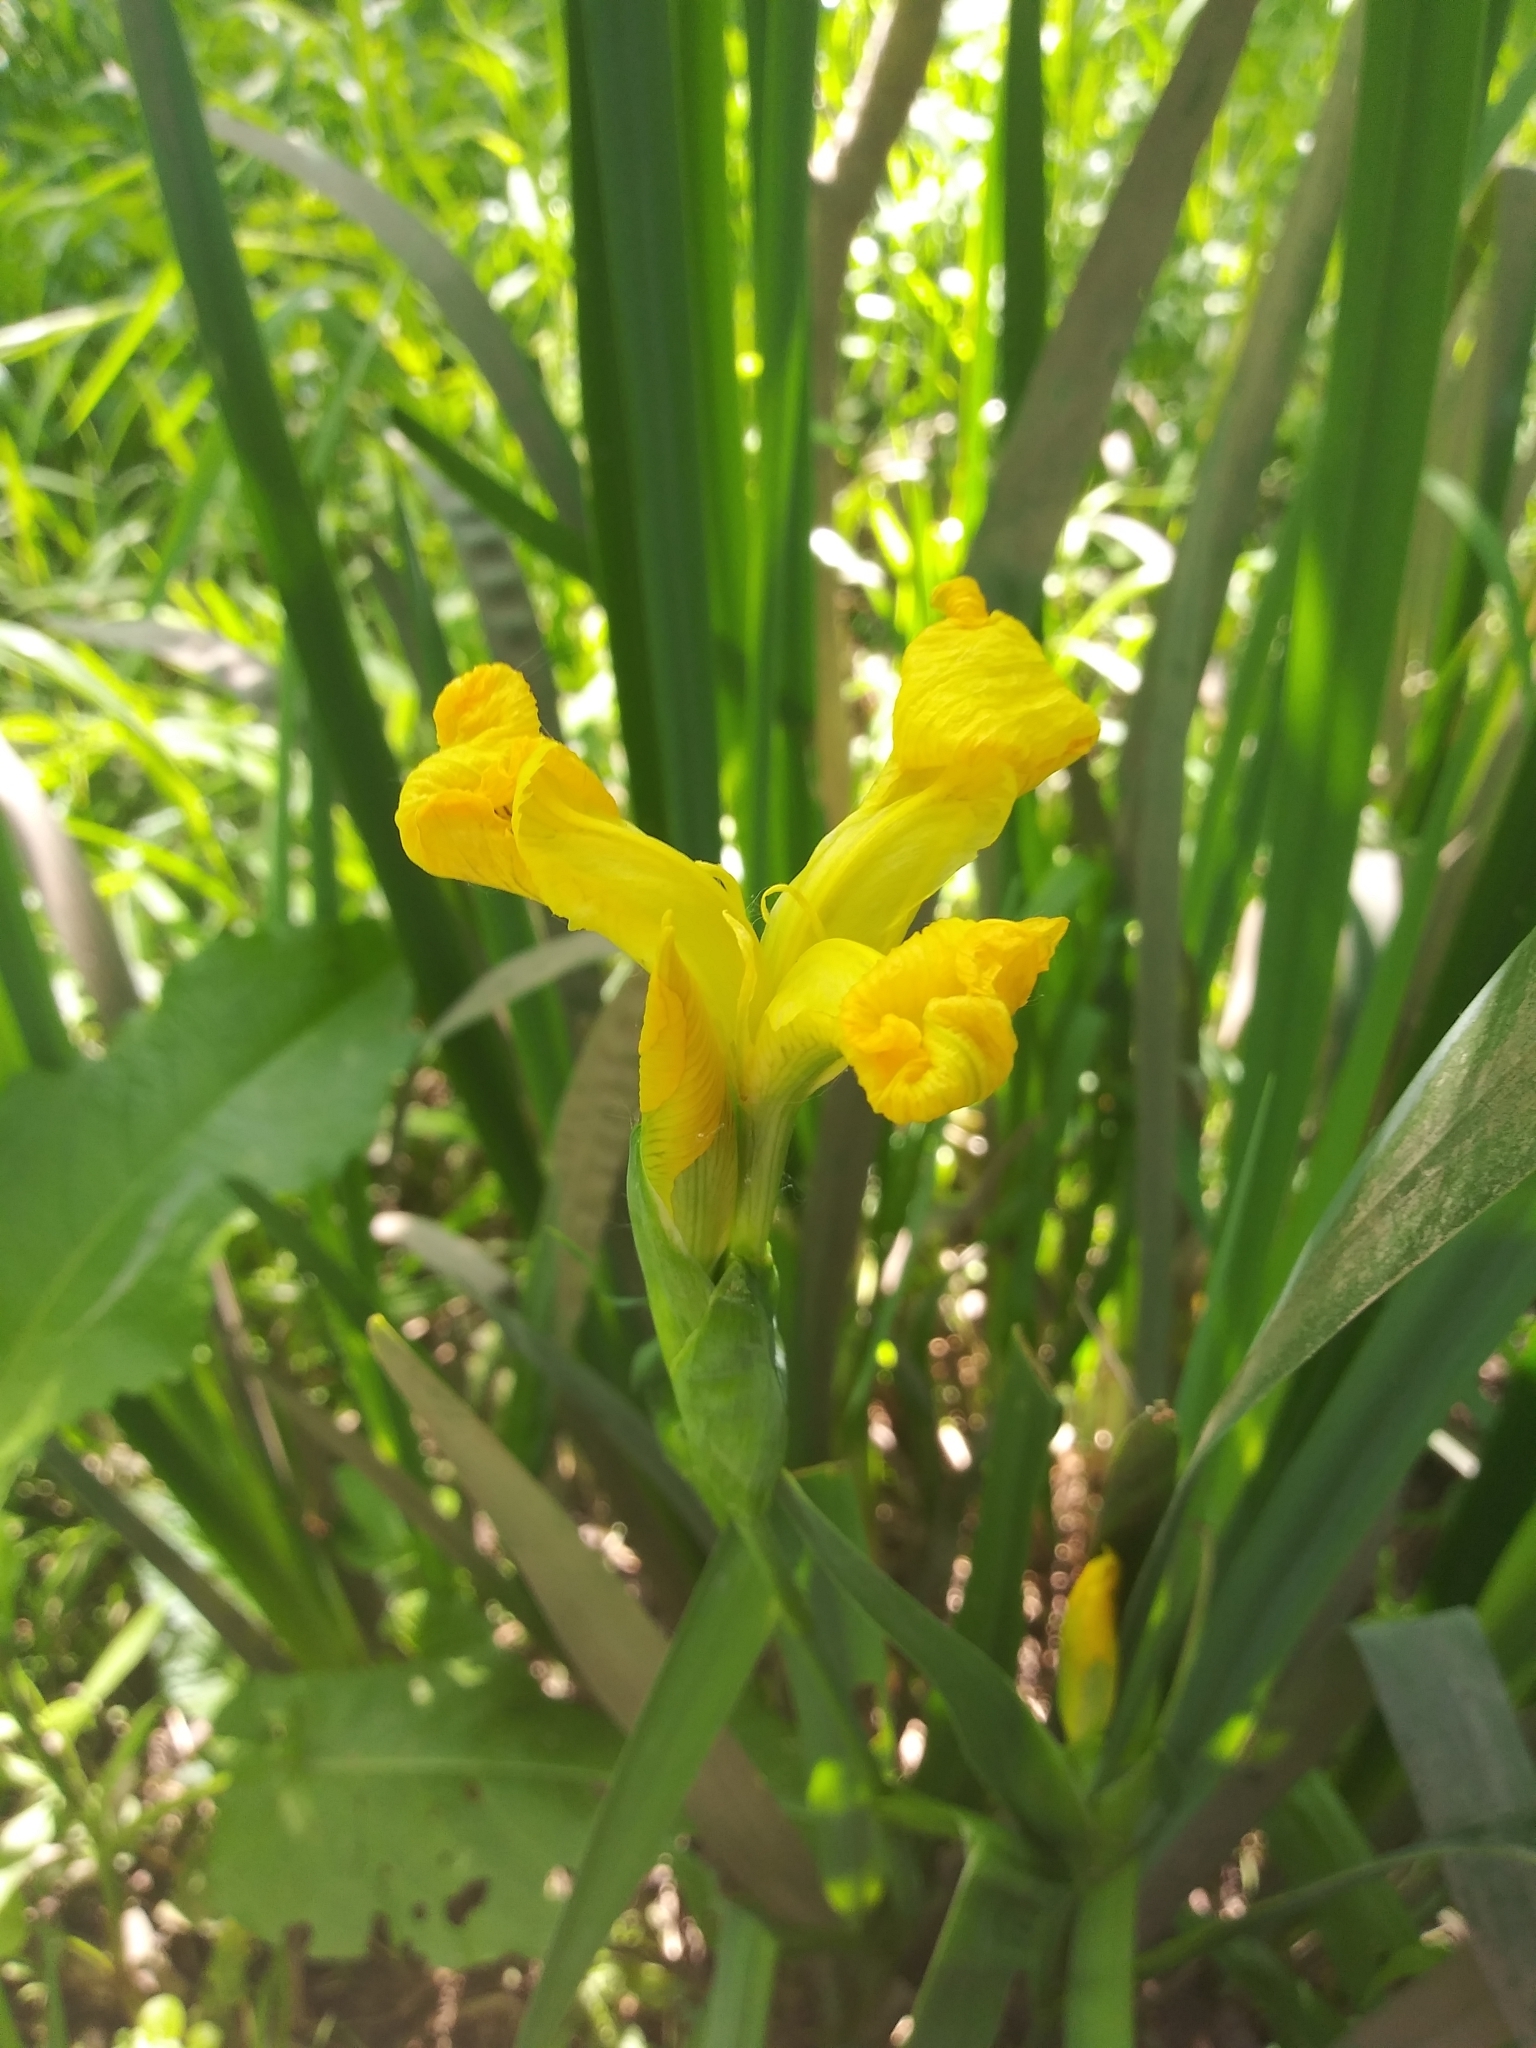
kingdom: Plantae
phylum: Tracheophyta
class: Liliopsida
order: Asparagales
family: Iridaceae
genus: Iris
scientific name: Iris pseudacorus
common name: Yellow flag
